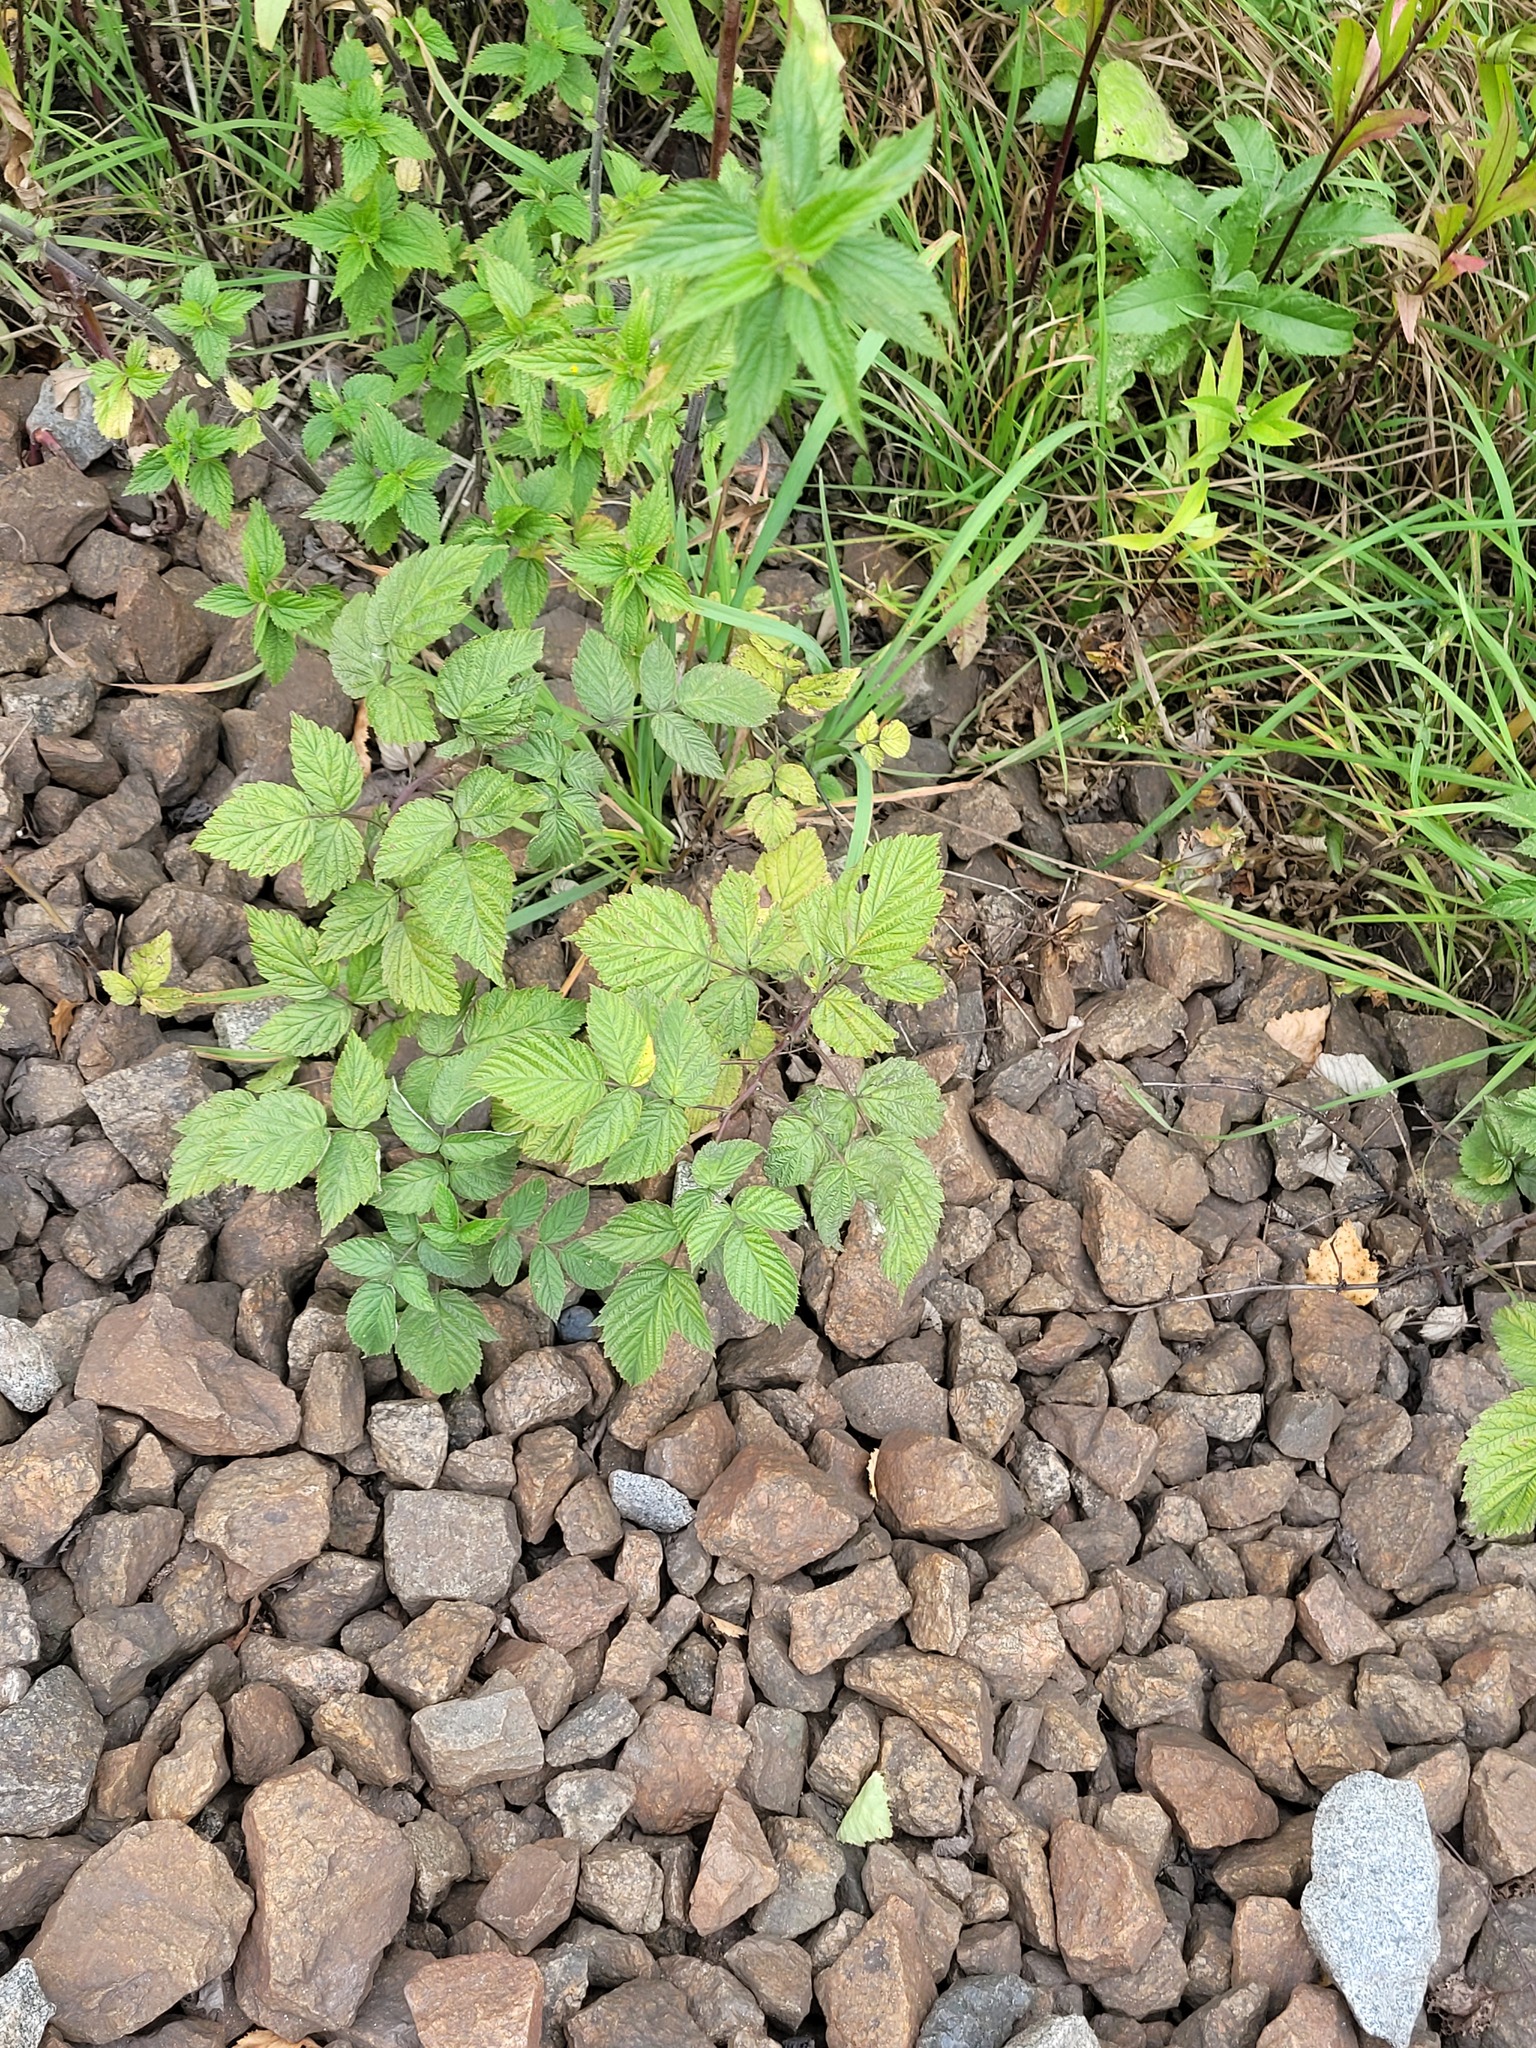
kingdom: Plantae
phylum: Tracheophyta
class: Magnoliopsida
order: Rosales
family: Rosaceae
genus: Rubus
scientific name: Rubus idaeus
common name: Raspberry
